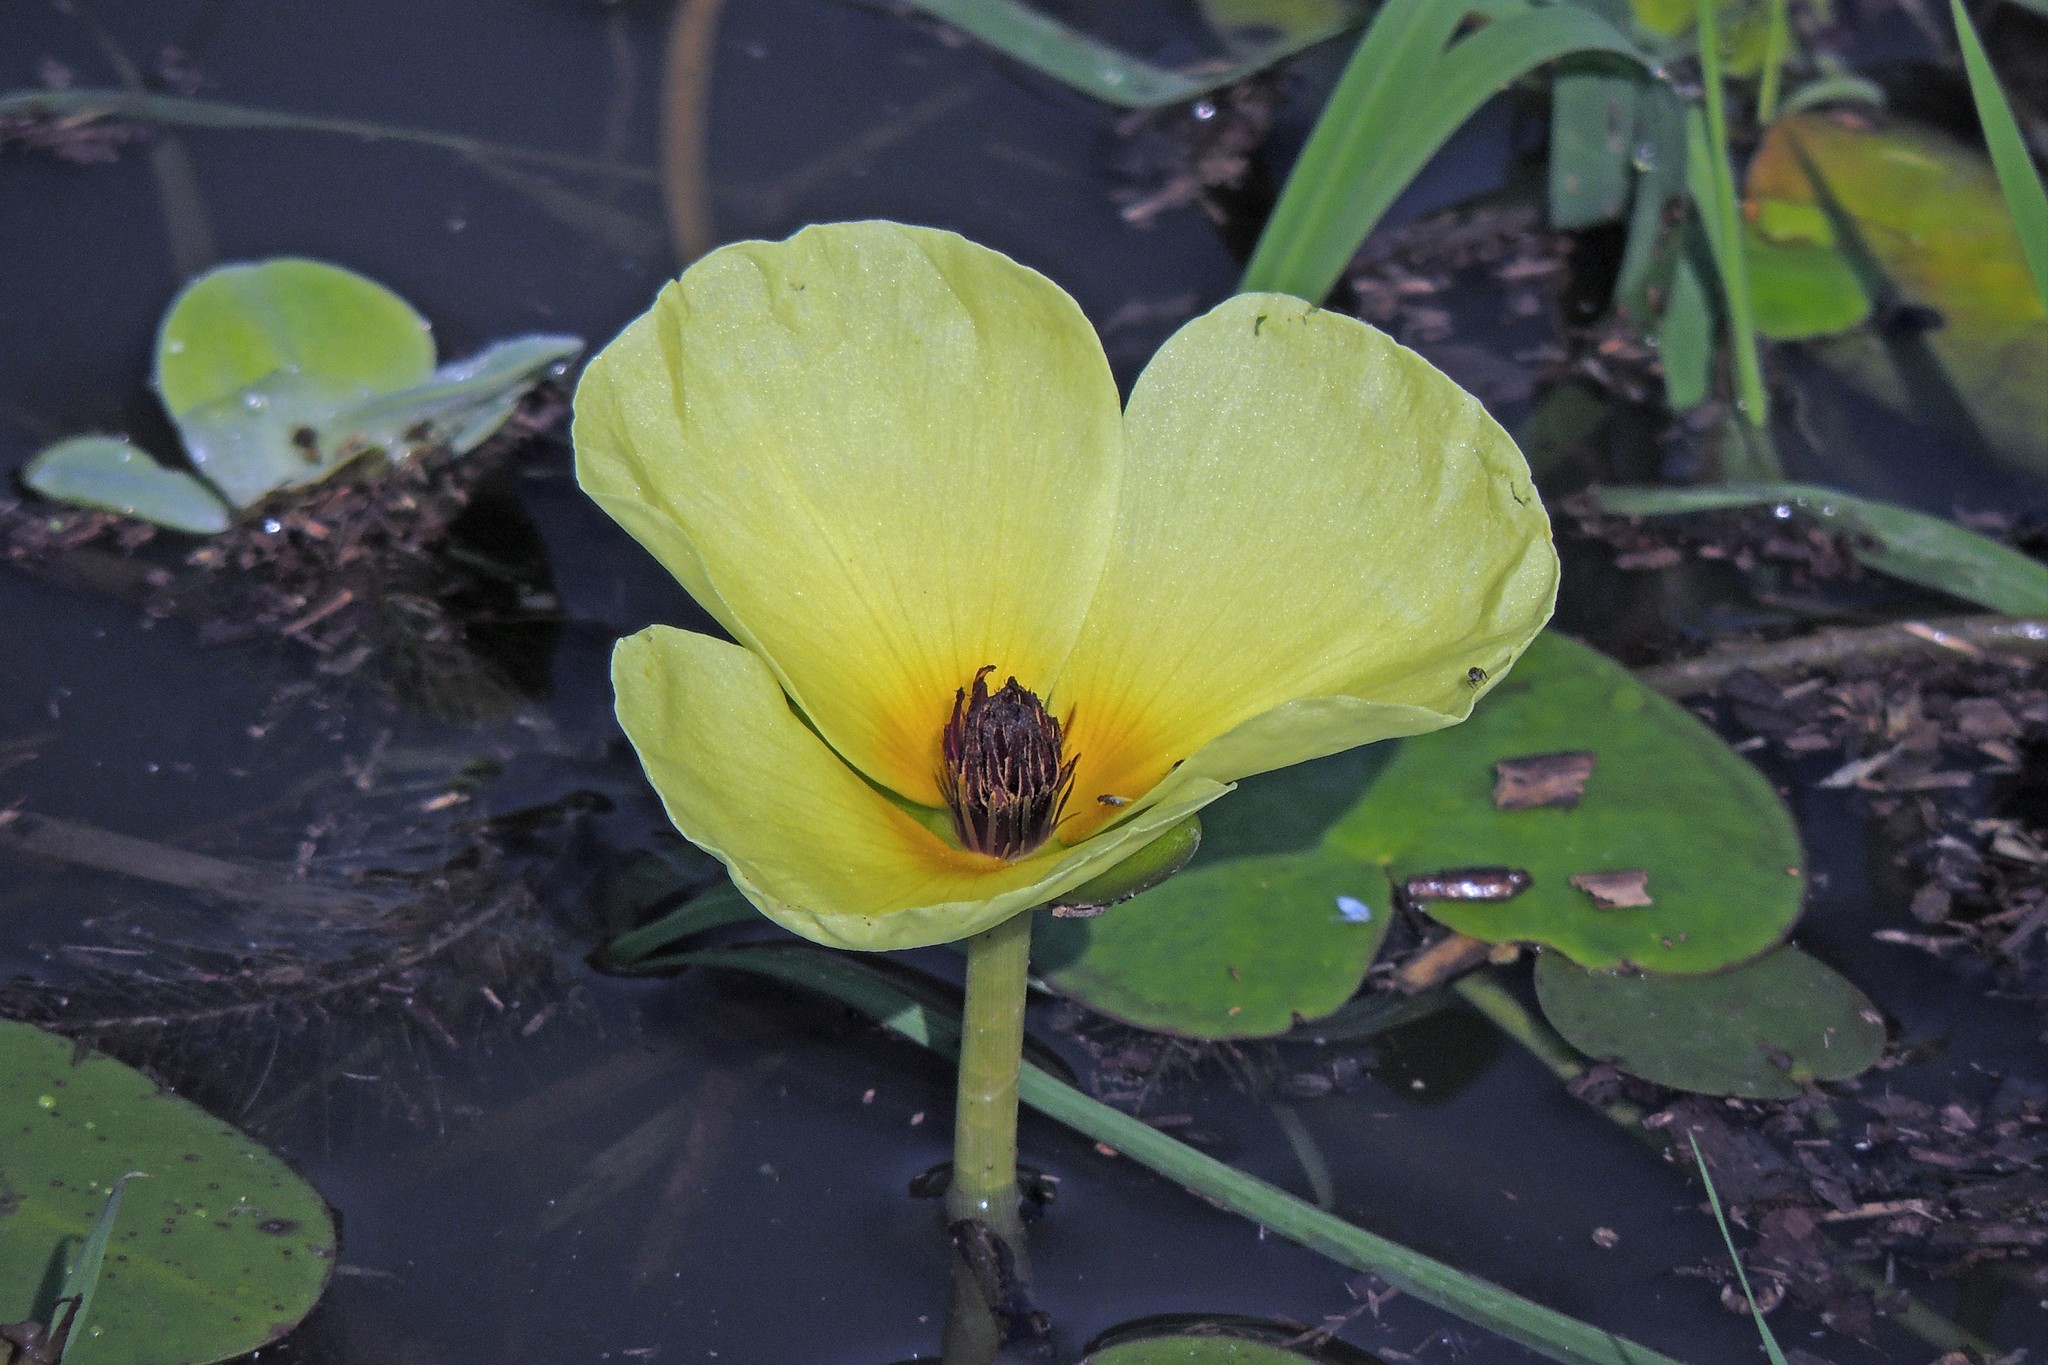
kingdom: Plantae
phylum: Tracheophyta
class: Liliopsida
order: Alismatales
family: Alismataceae
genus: Hydrocleys
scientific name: Hydrocleys nymphoides
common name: Water-poppy
